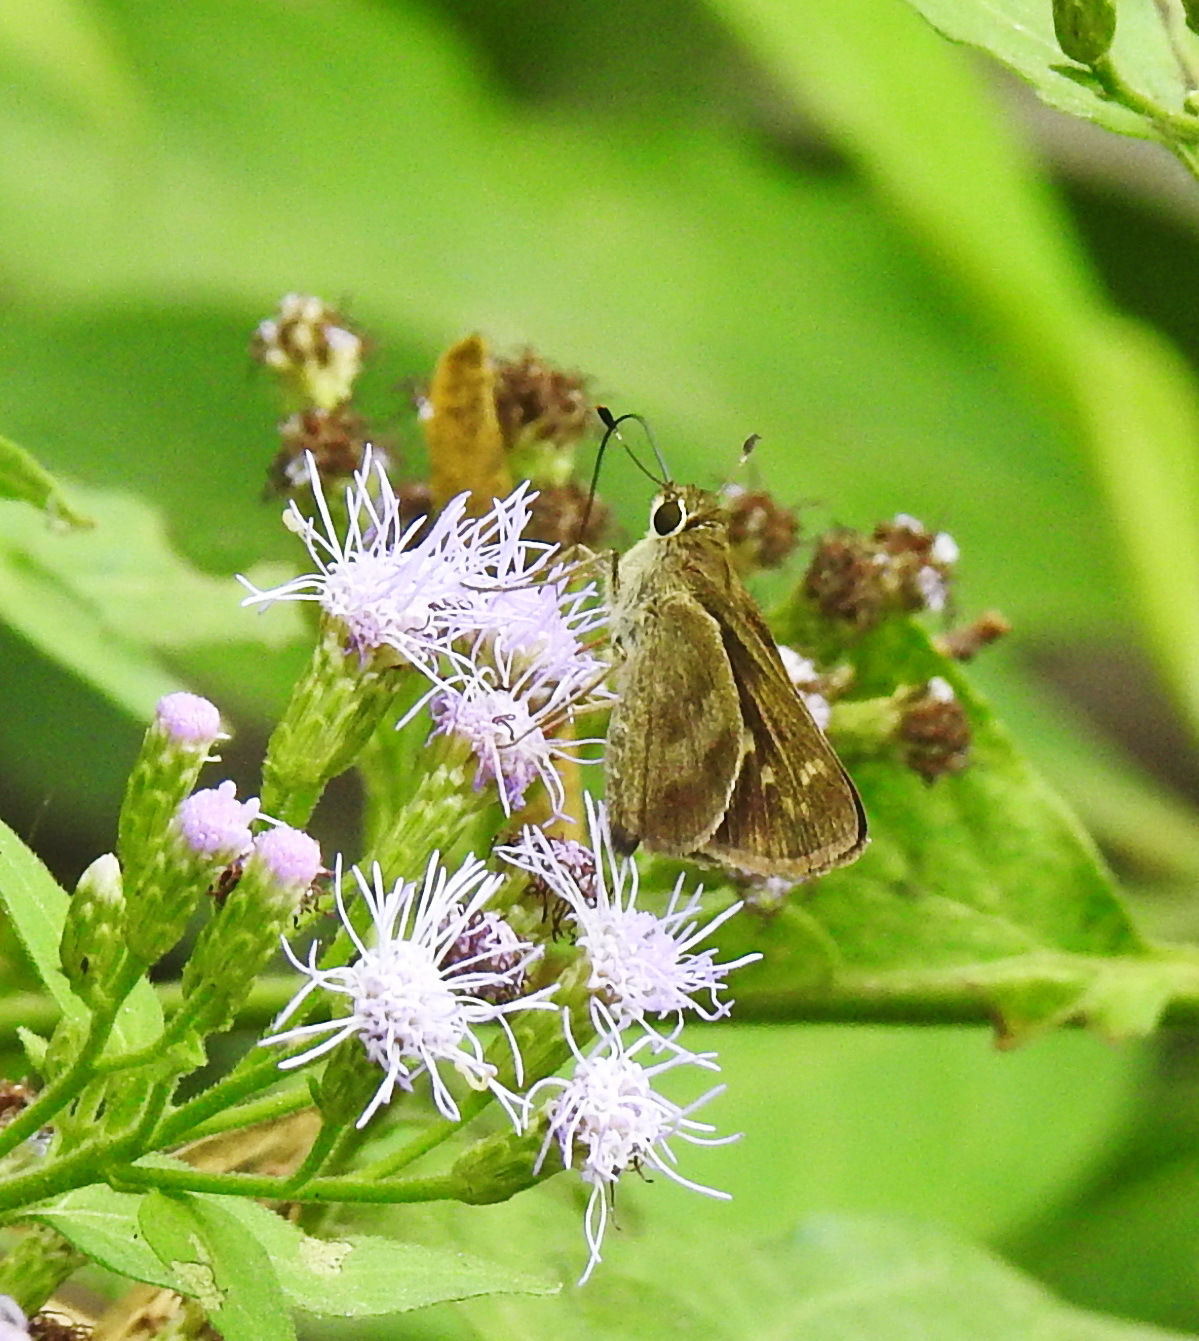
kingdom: Animalia
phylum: Arthropoda
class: Insecta
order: Lepidoptera
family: Hesperiidae
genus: Polites
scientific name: Polites vibex
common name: Whirlabout
